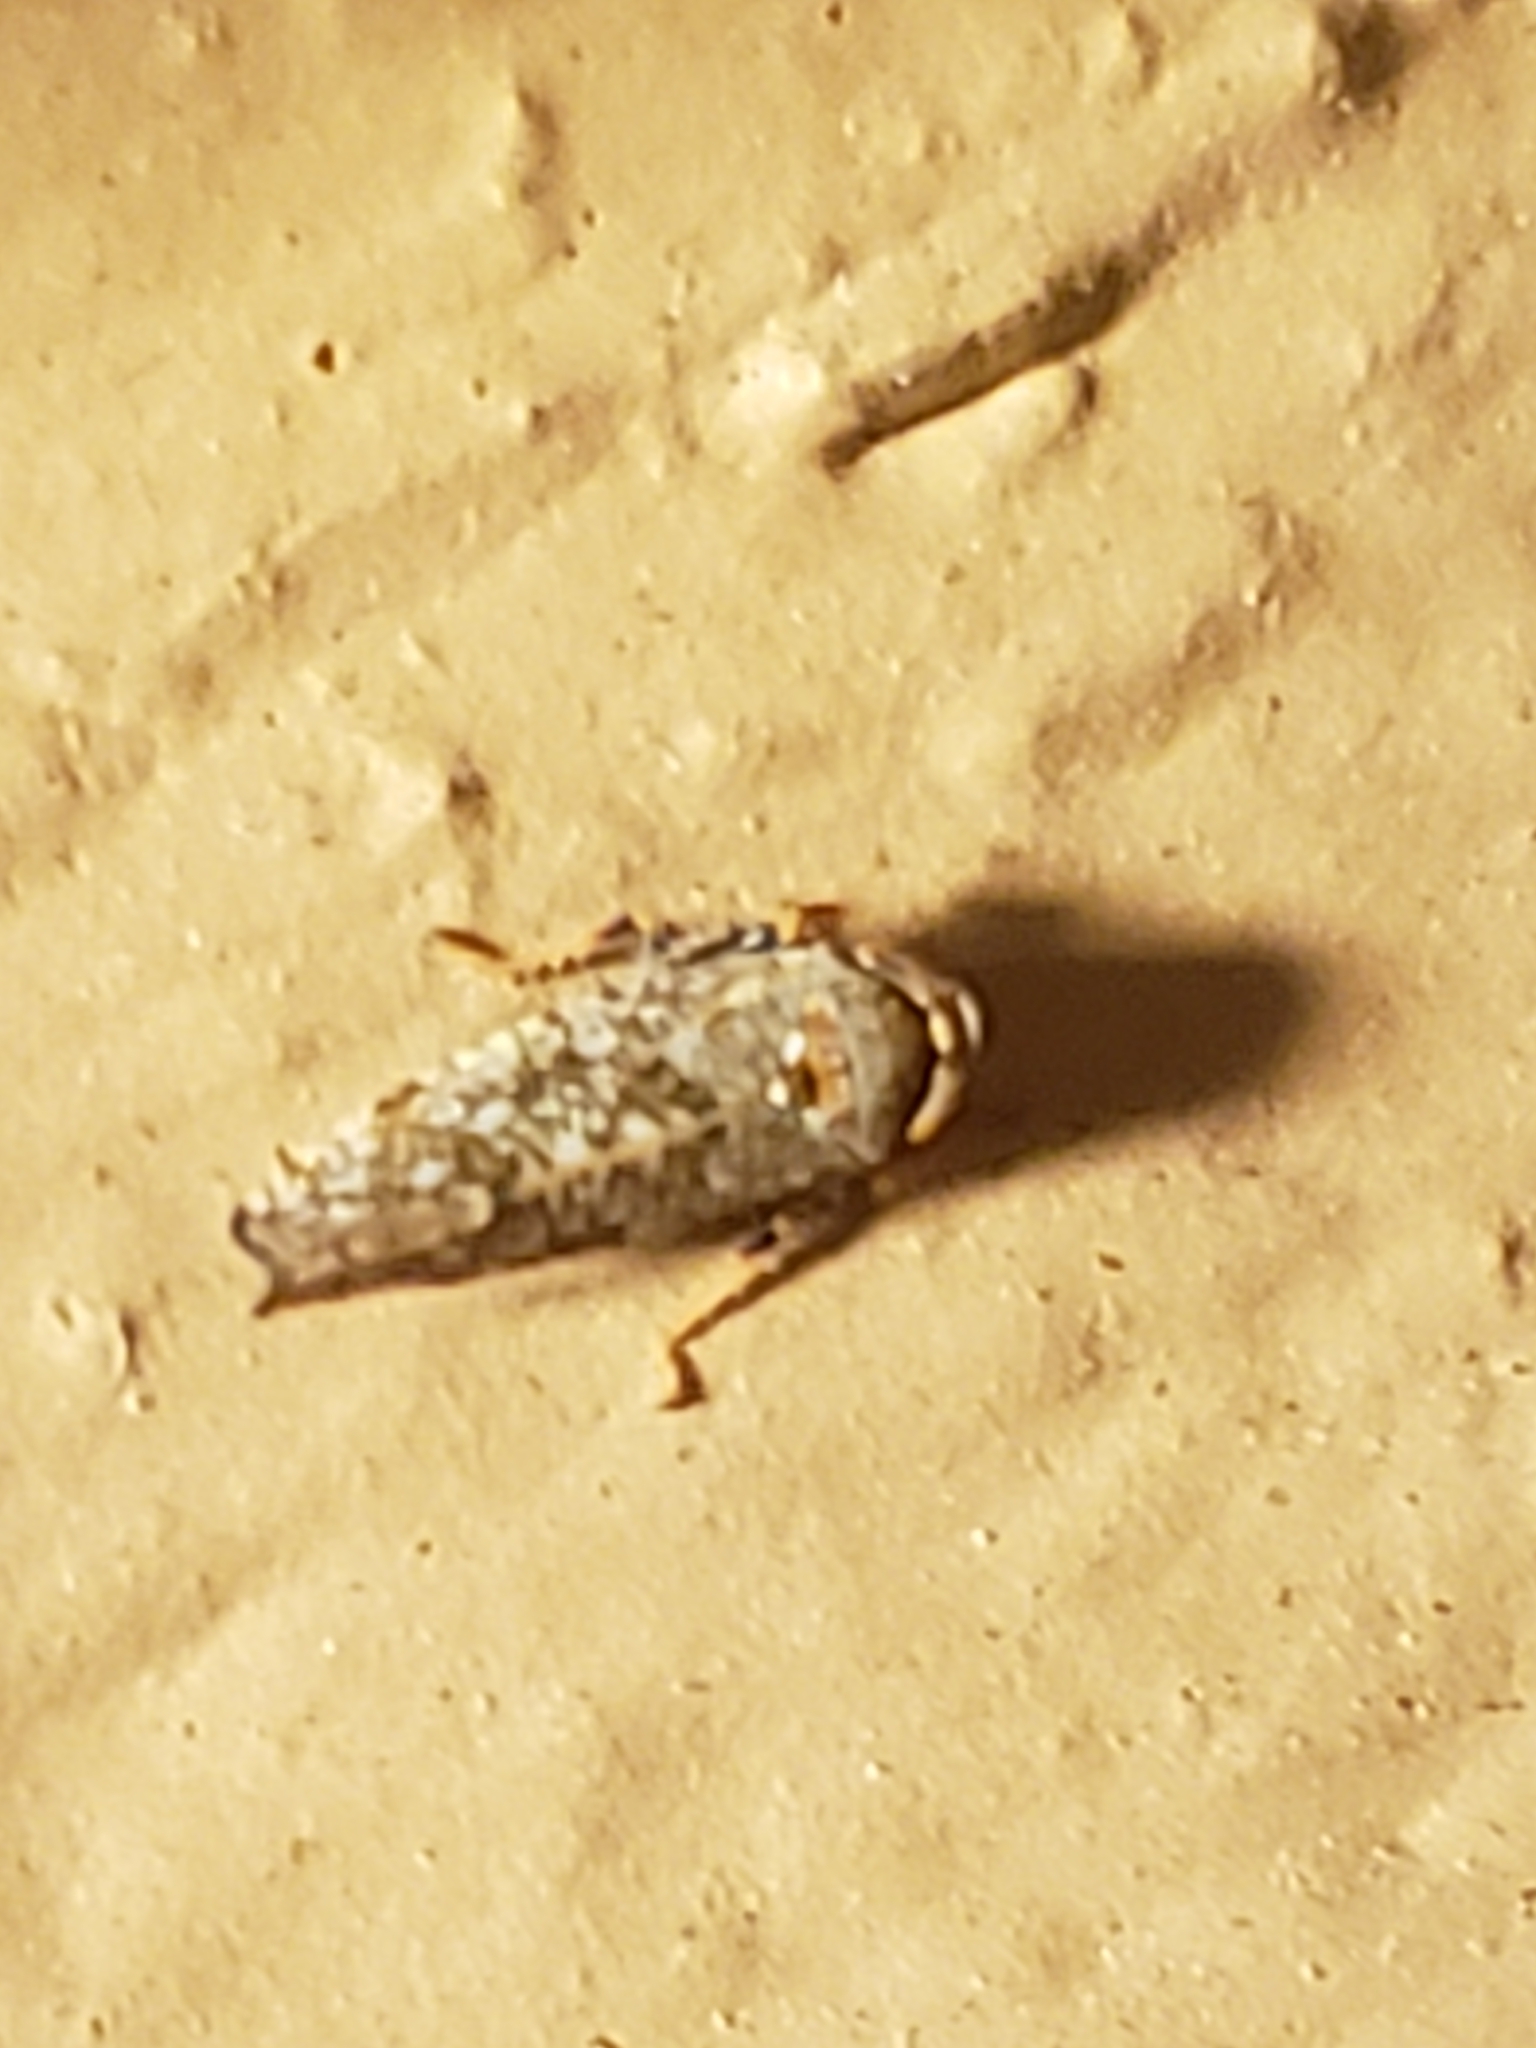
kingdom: Animalia
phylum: Arthropoda
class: Insecta
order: Hemiptera
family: Cicadellidae
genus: Orientus
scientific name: Orientus ishidae
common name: Japanese leafhopper
